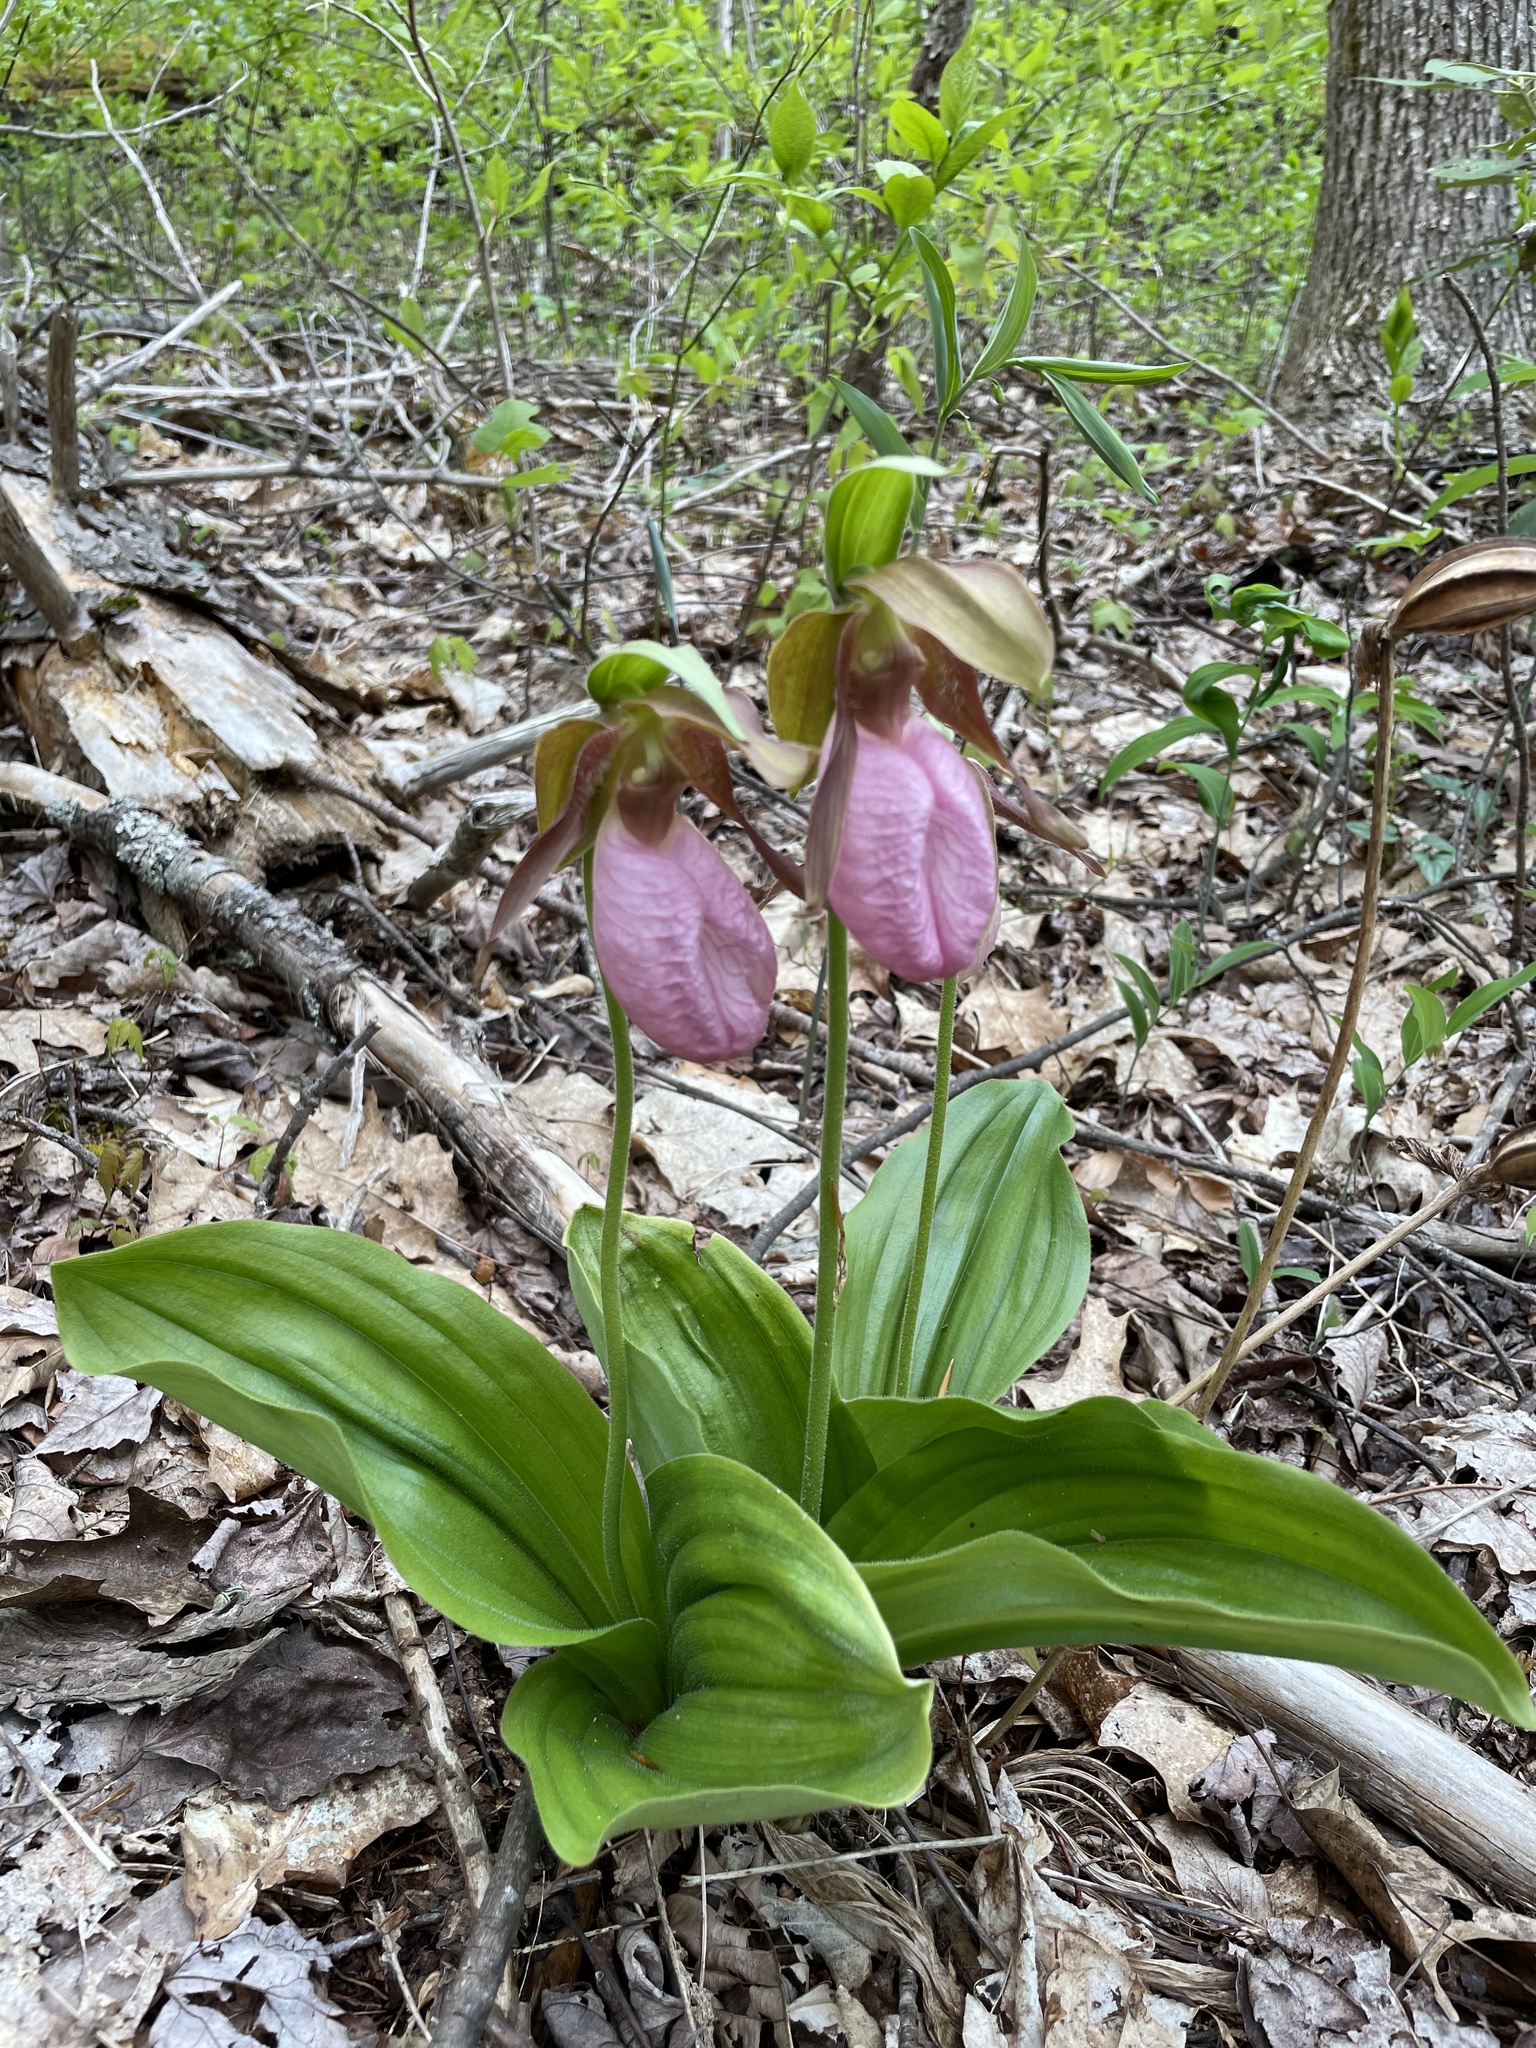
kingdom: Plantae
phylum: Tracheophyta
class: Liliopsida
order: Asparagales
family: Orchidaceae
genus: Cypripedium
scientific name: Cypripedium acaule
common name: Pink lady's-slipper
